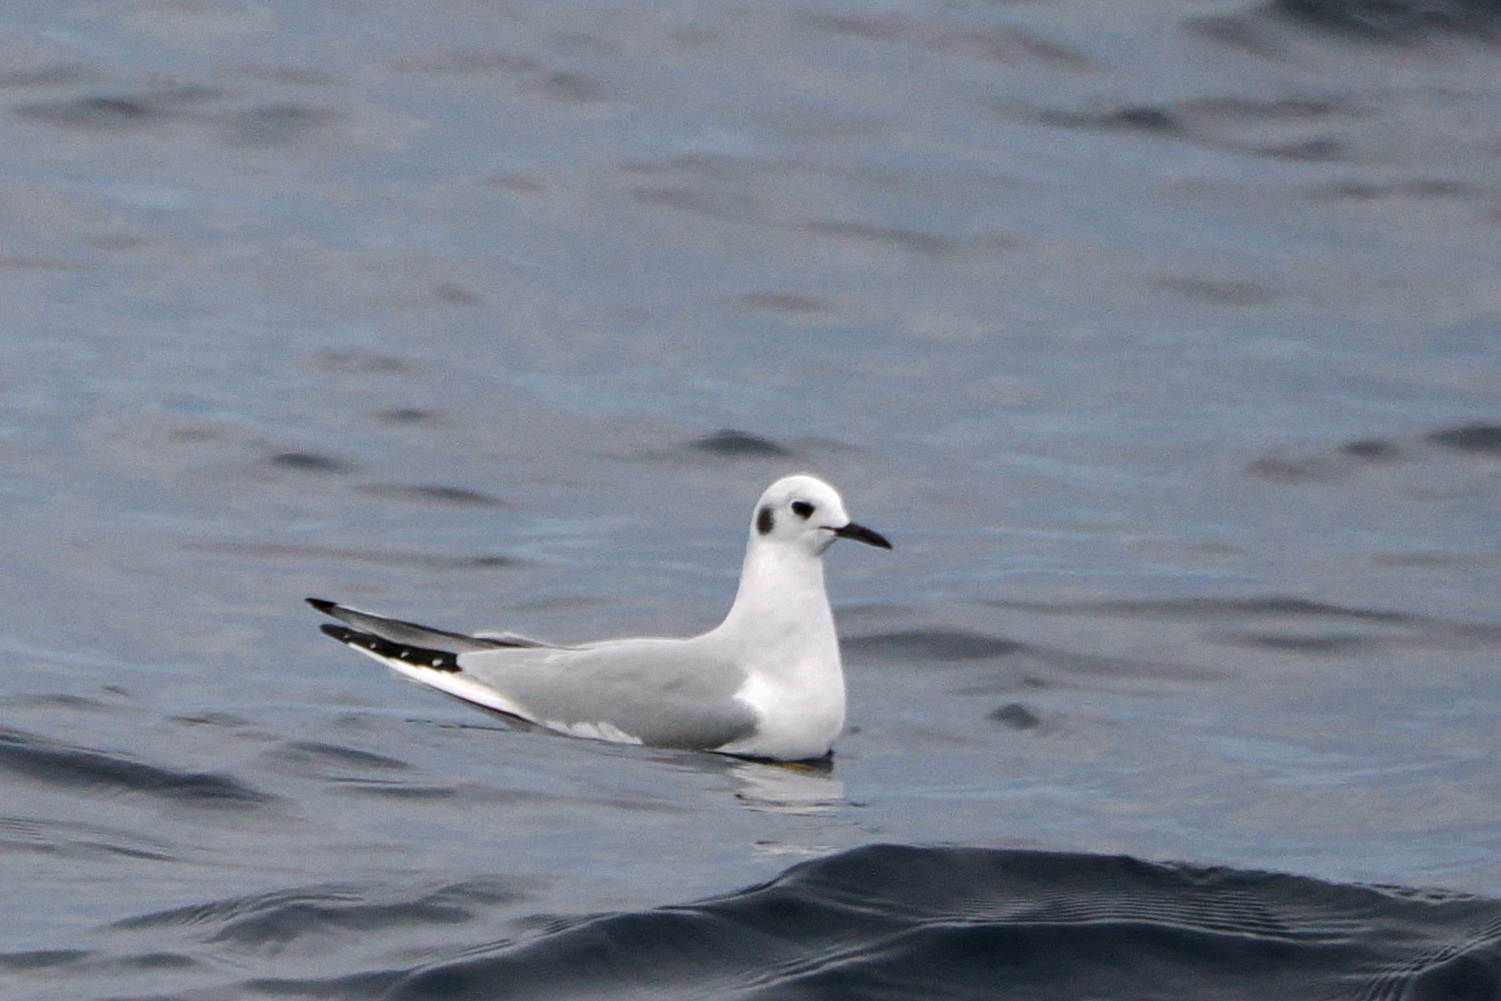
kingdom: Animalia
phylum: Chordata
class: Aves
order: Charadriiformes
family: Laridae
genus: Chroicocephalus
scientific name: Chroicocephalus philadelphia
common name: Bonaparte's gull
